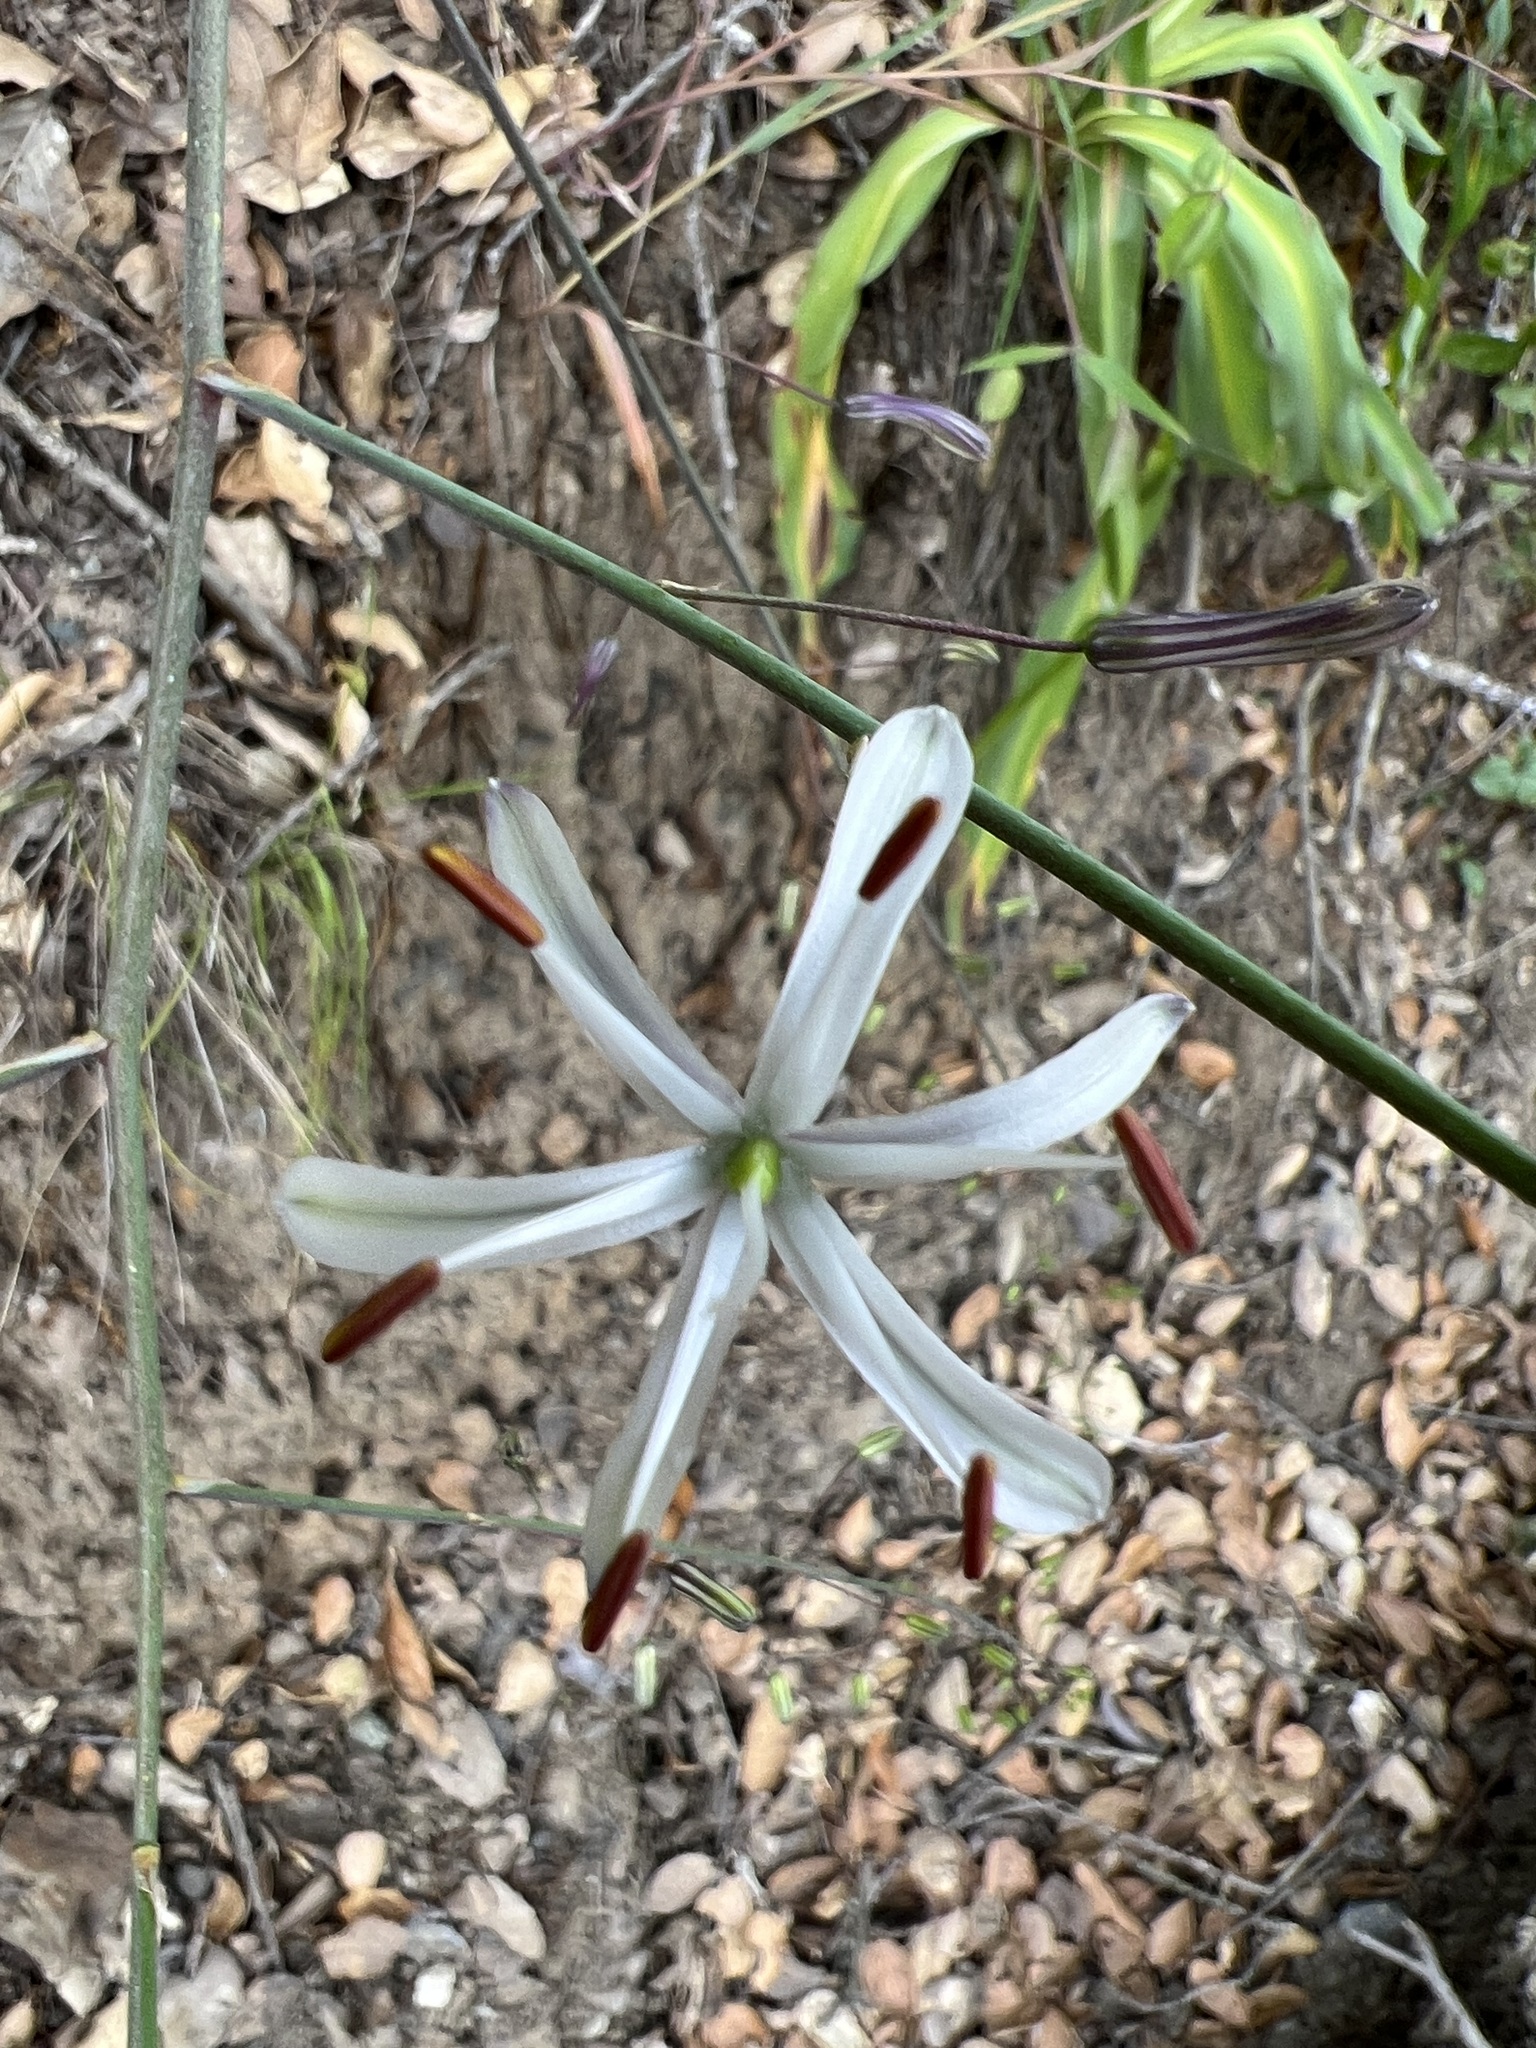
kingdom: Plantae
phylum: Tracheophyta
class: Liliopsida
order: Asparagales
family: Asparagaceae
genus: Chlorogalum
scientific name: Chlorogalum pomeridianum
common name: Amole
